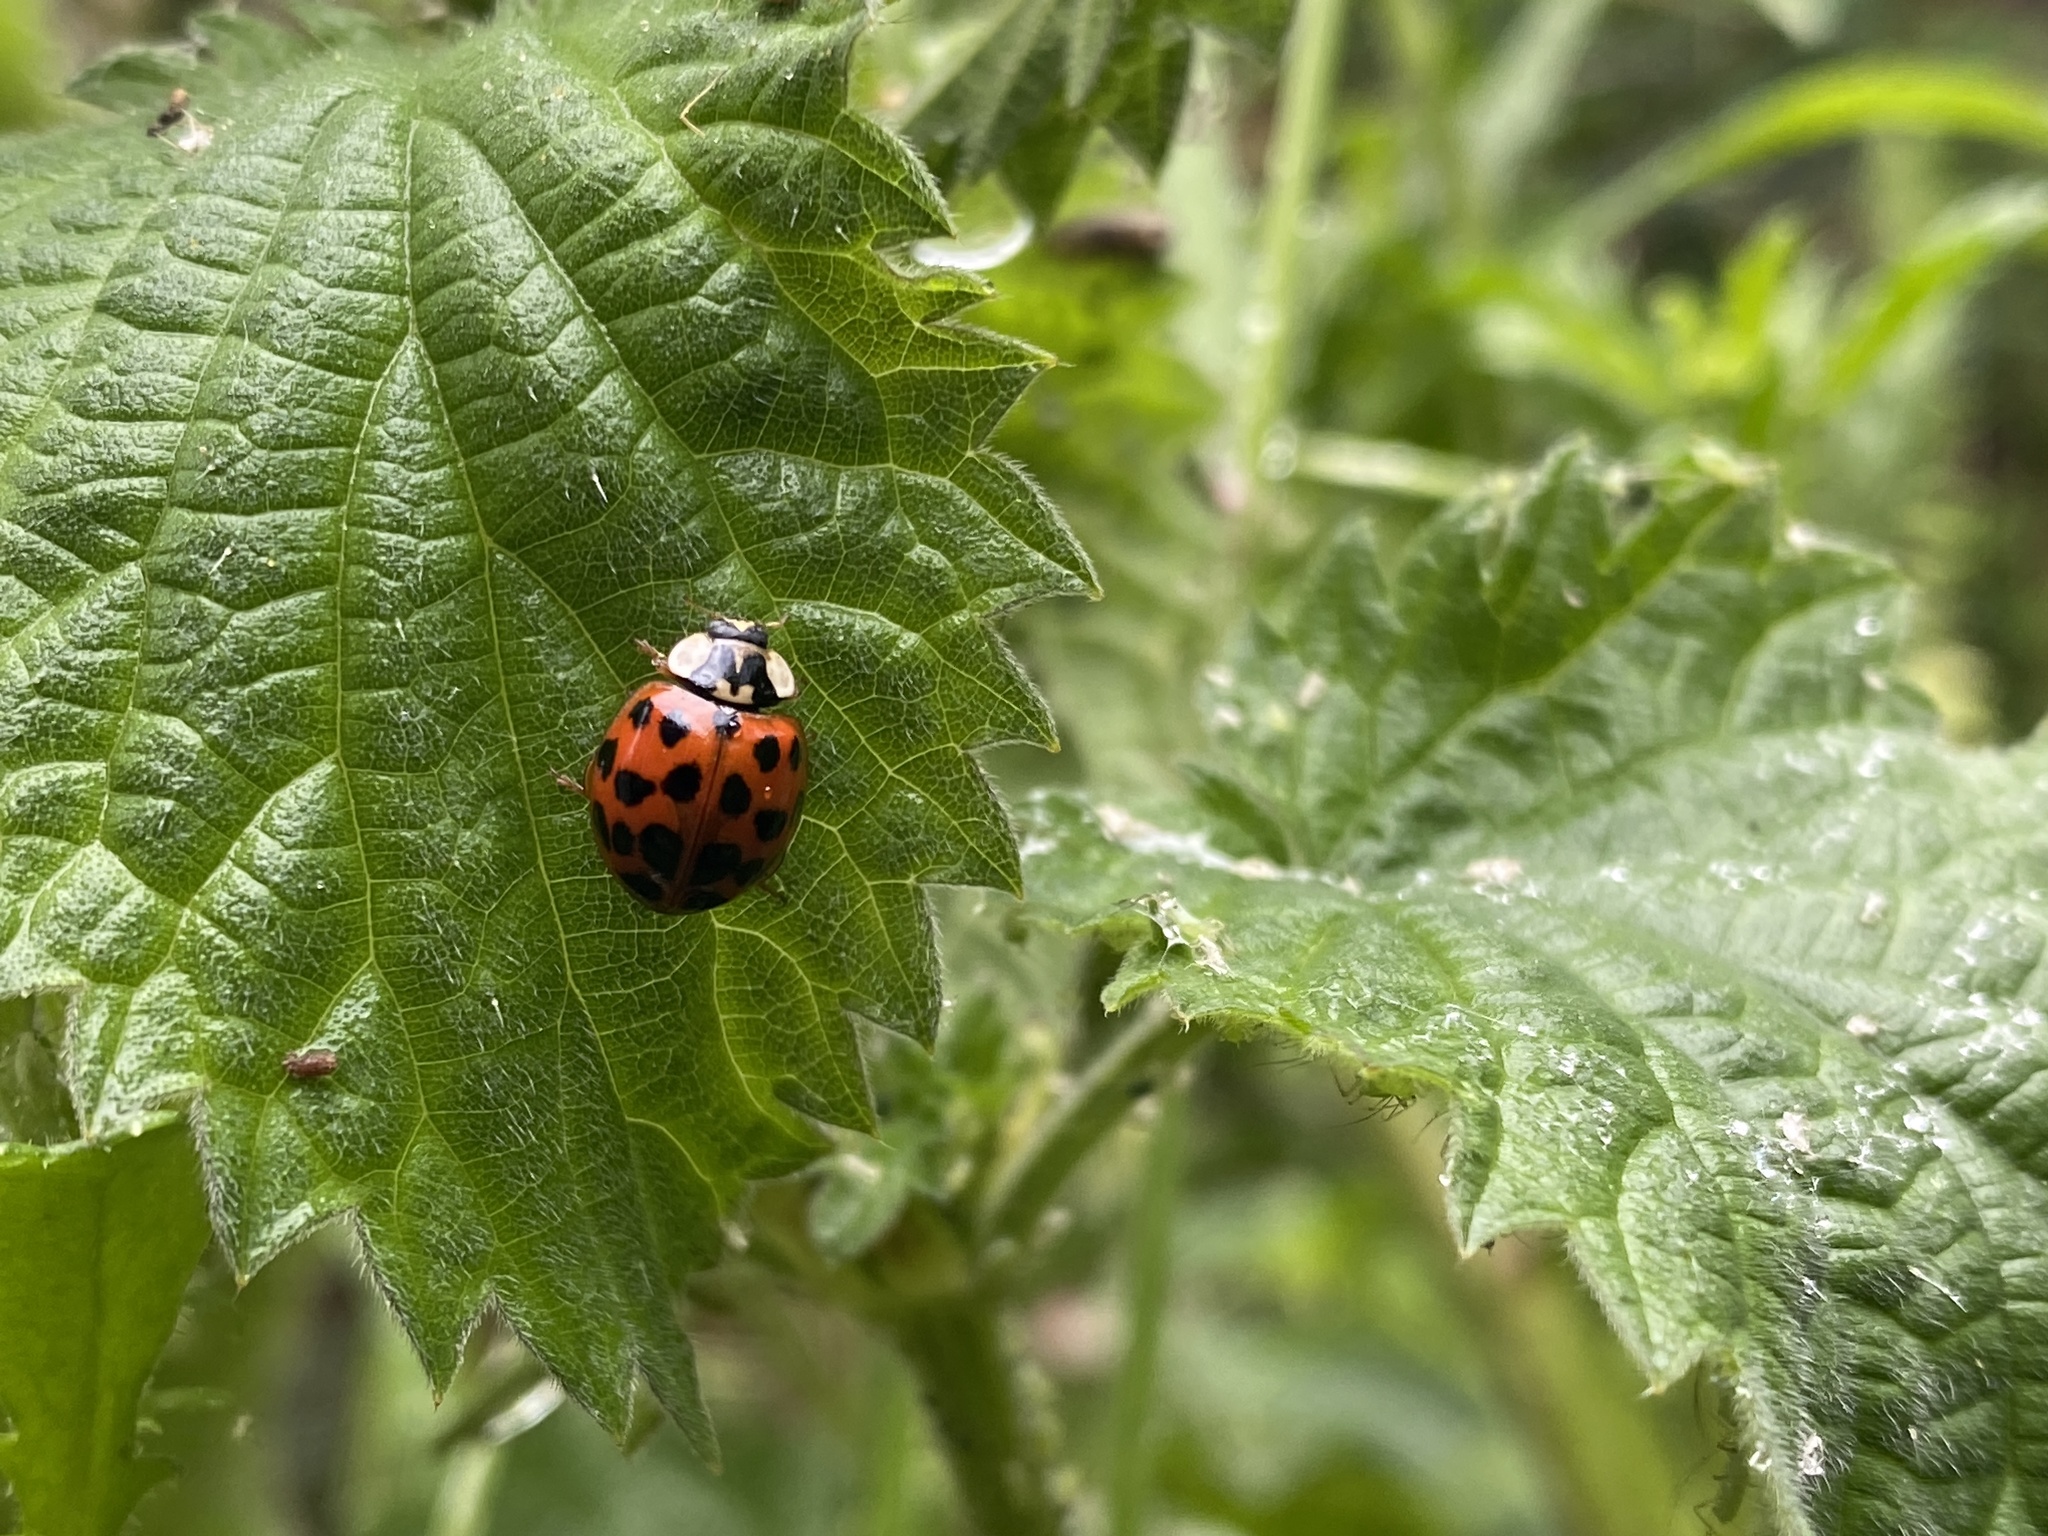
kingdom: Animalia
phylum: Arthropoda
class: Insecta
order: Coleoptera
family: Coccinellidae
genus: Harmonia
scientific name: Harmonia axyridis
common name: Harlequin ladybird
